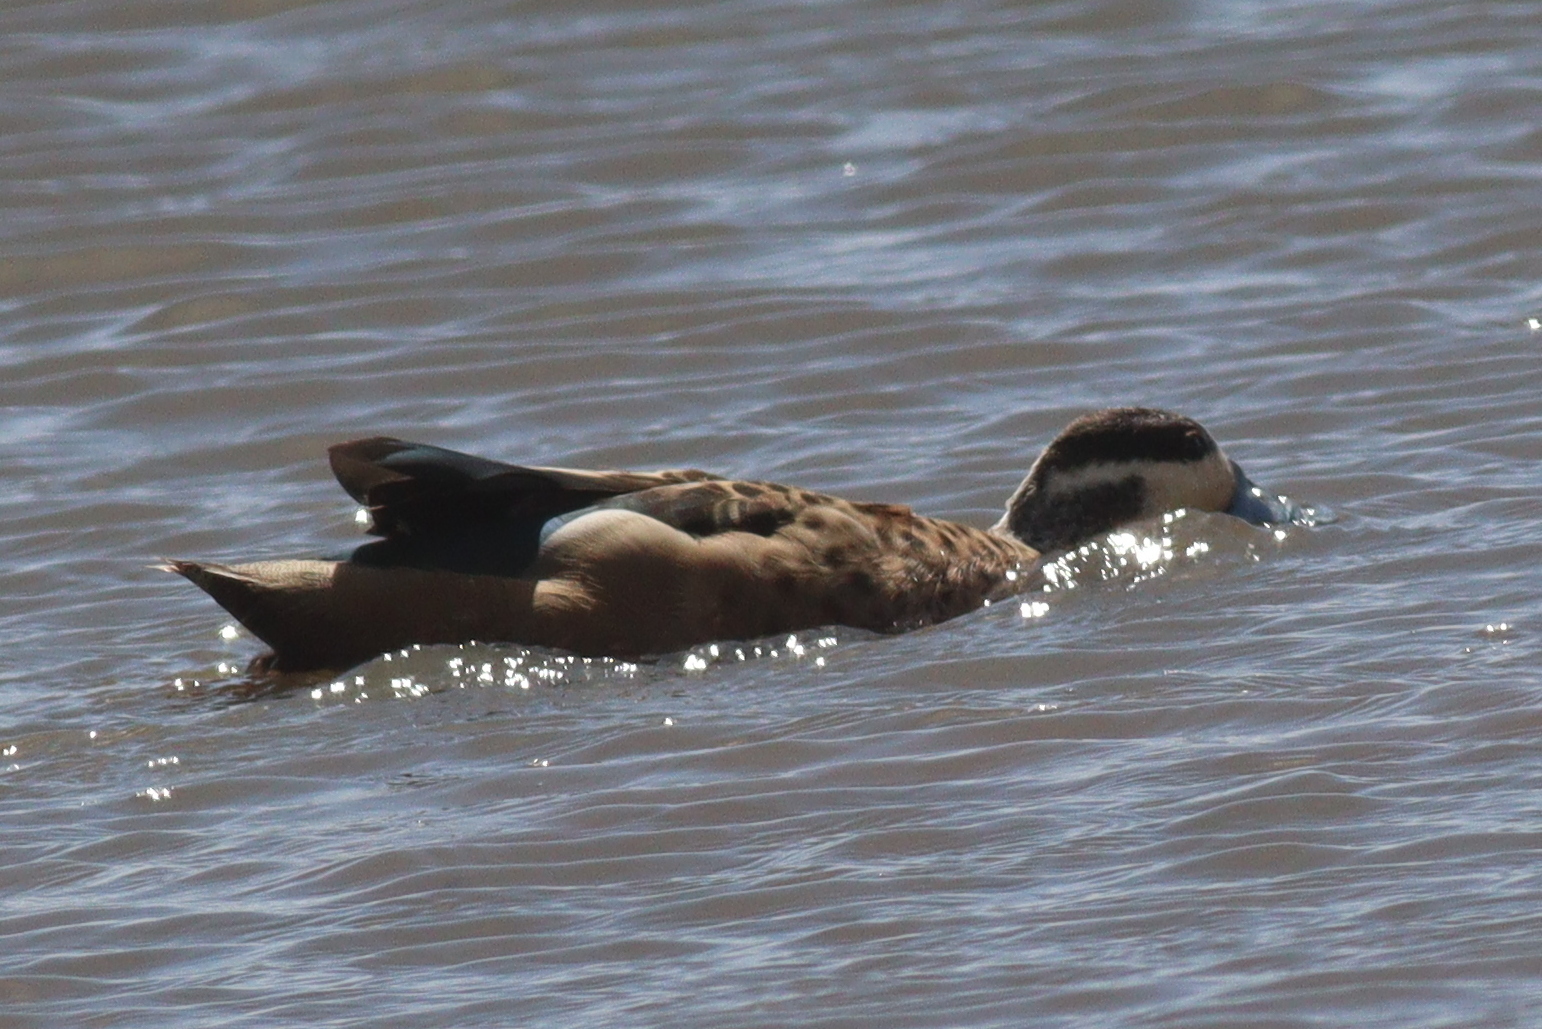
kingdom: Animalia
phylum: Chordata
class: Aves
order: Anseriformes
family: Anatidae
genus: Spatula
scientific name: Spatula hottentota
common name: Blue-billed teal
